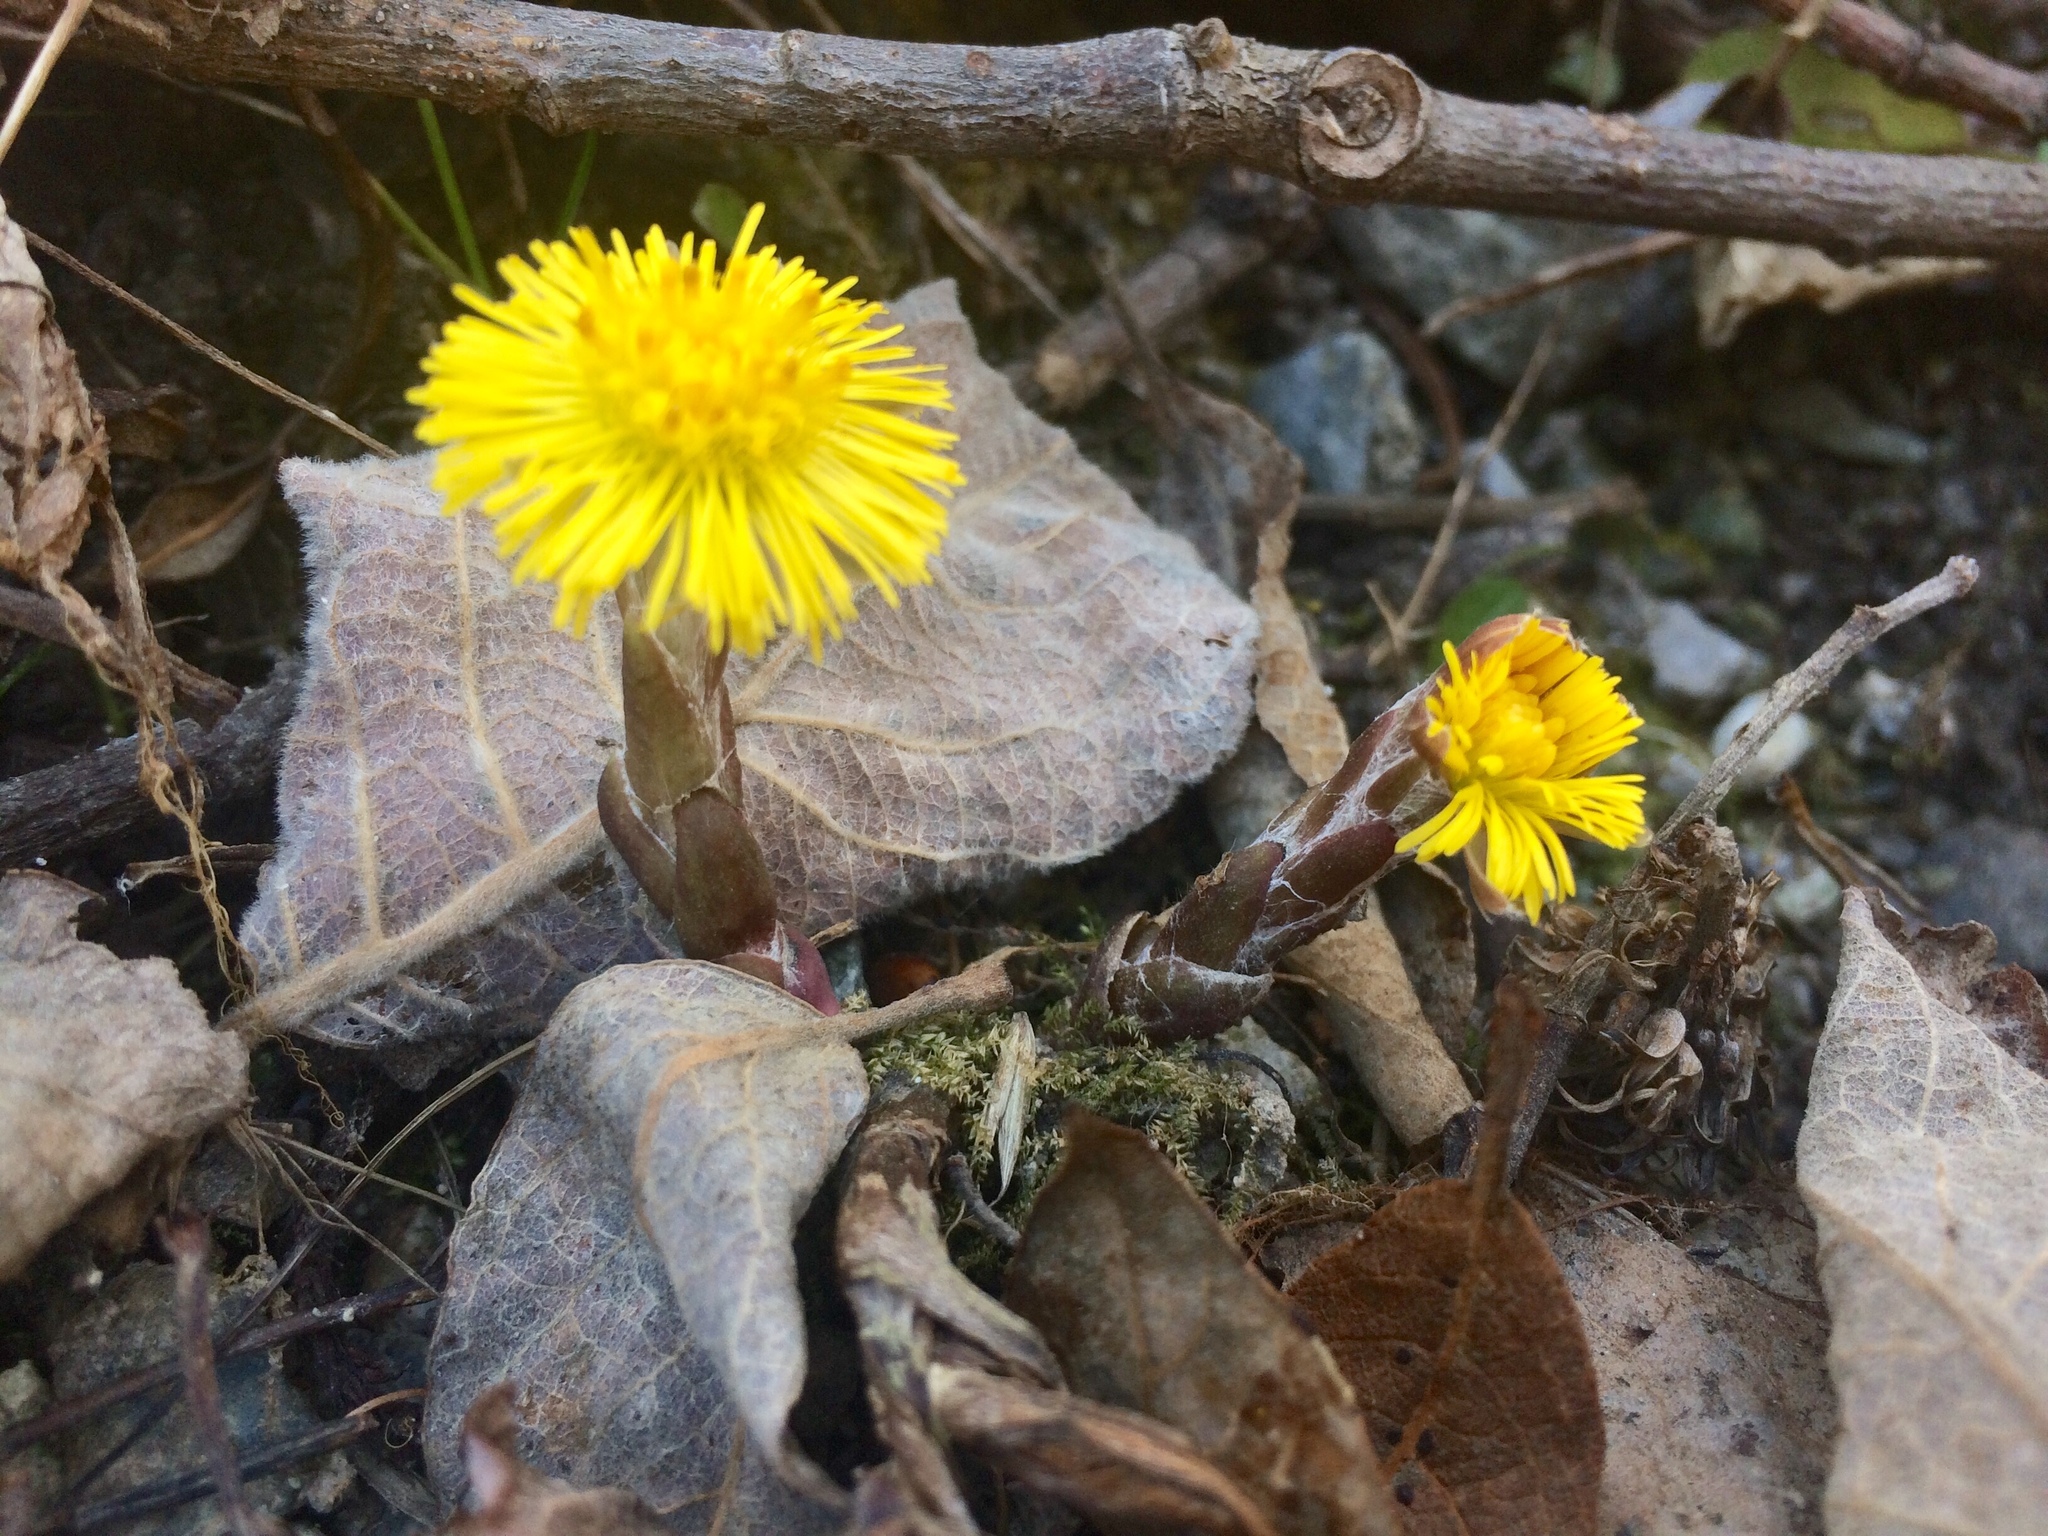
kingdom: Plantae
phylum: Tracheophyta
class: Magnoliopsida
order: Asterales
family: Asteraceae
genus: Tussilago
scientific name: Tussilago farfara
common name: Coltsfoot
